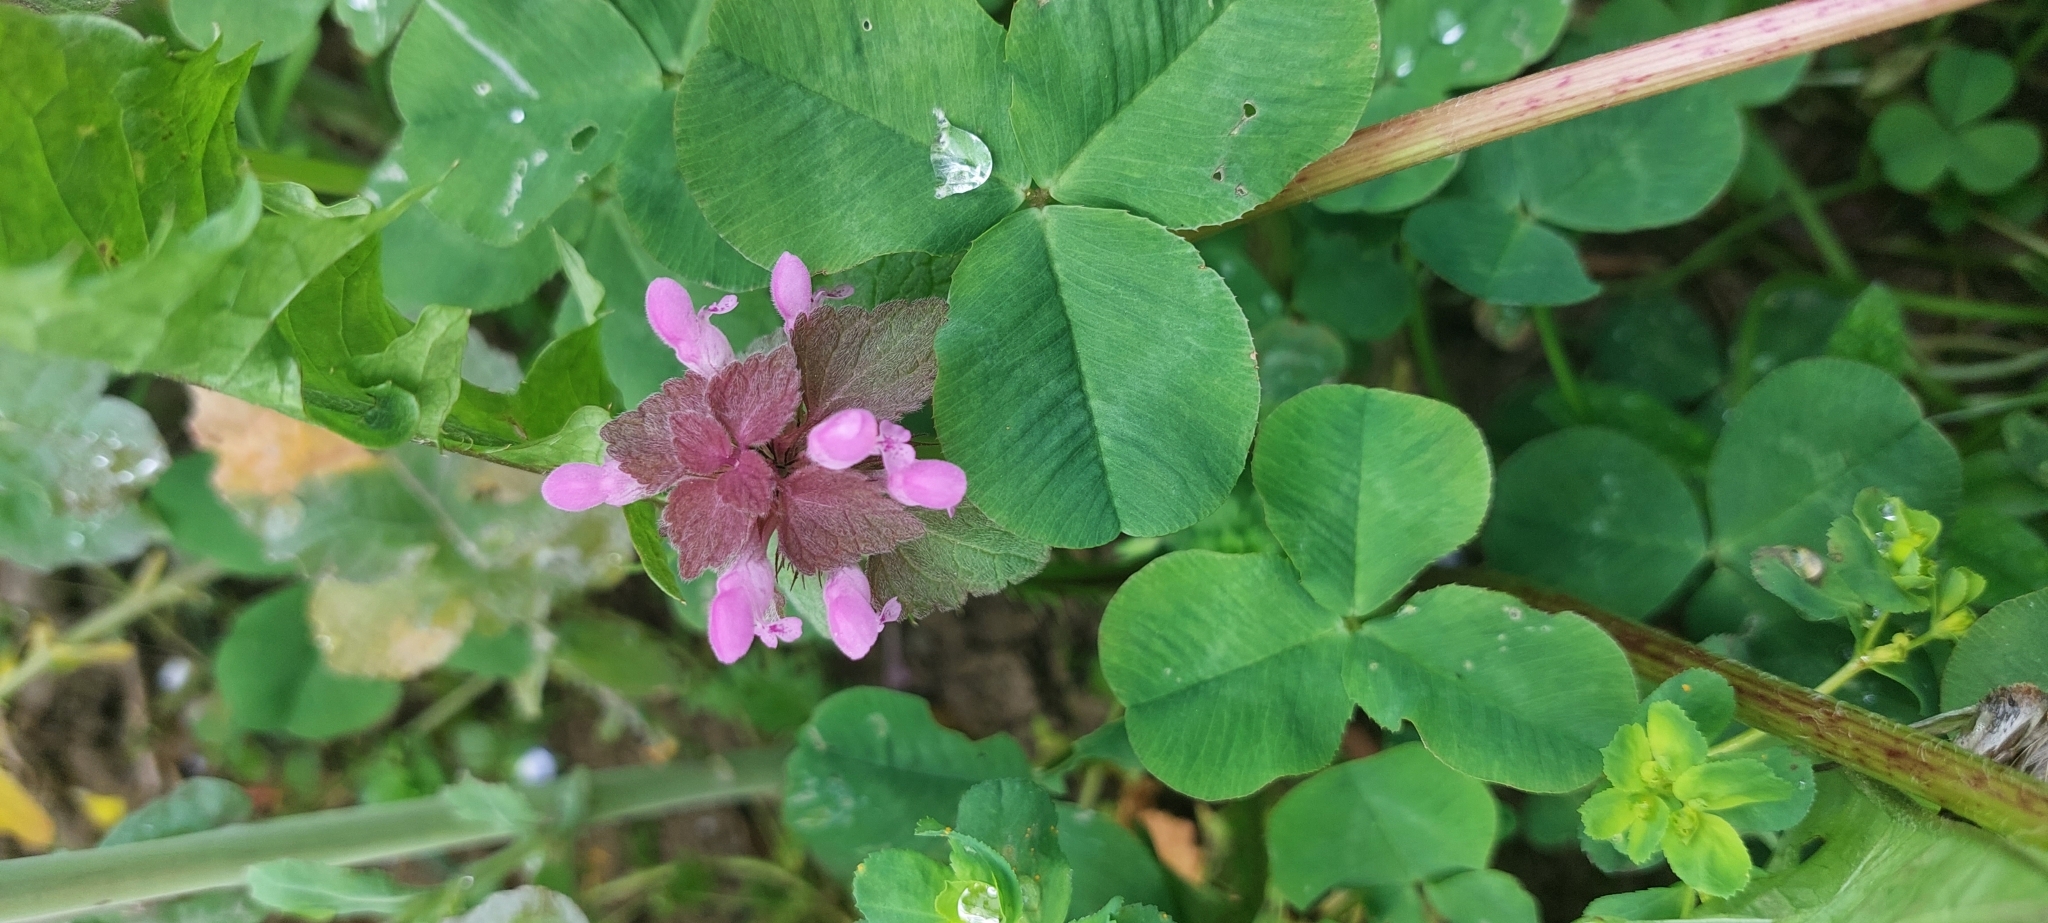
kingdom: Plantae
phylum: Tracheophyta
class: Magnoliopsida
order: Lamiales
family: Lamiaceae
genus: Lamium
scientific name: Lamium purpureum
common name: Red dead-nettle
